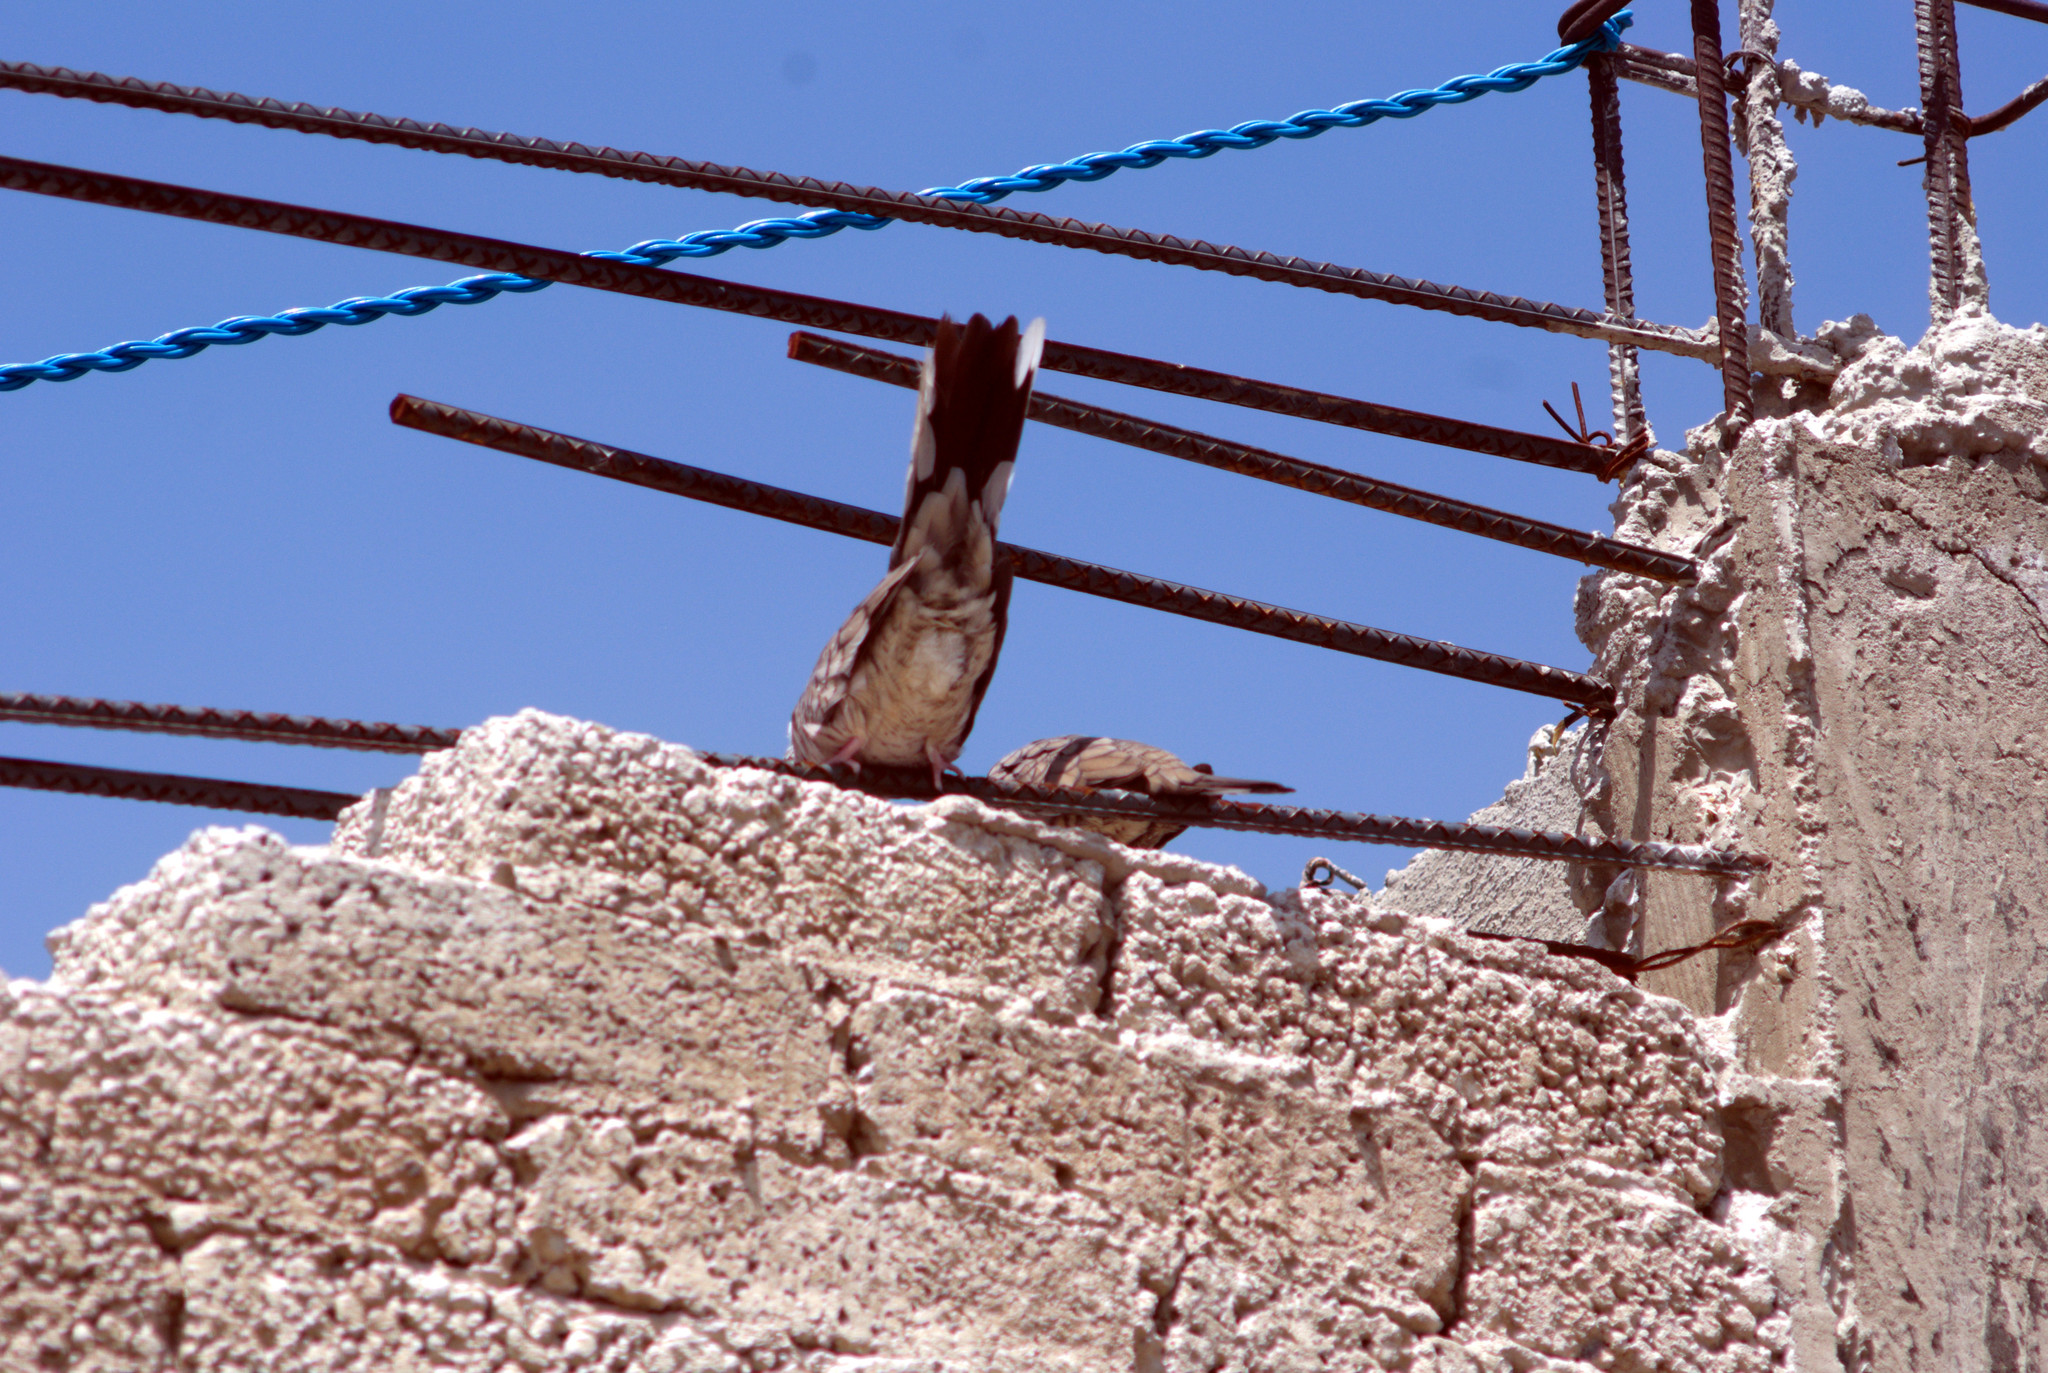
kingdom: Animalia
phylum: Chordata
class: Aves
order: Columbiformes
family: Columbidae
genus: Columbina
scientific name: Columbina inca
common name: Inca dove
